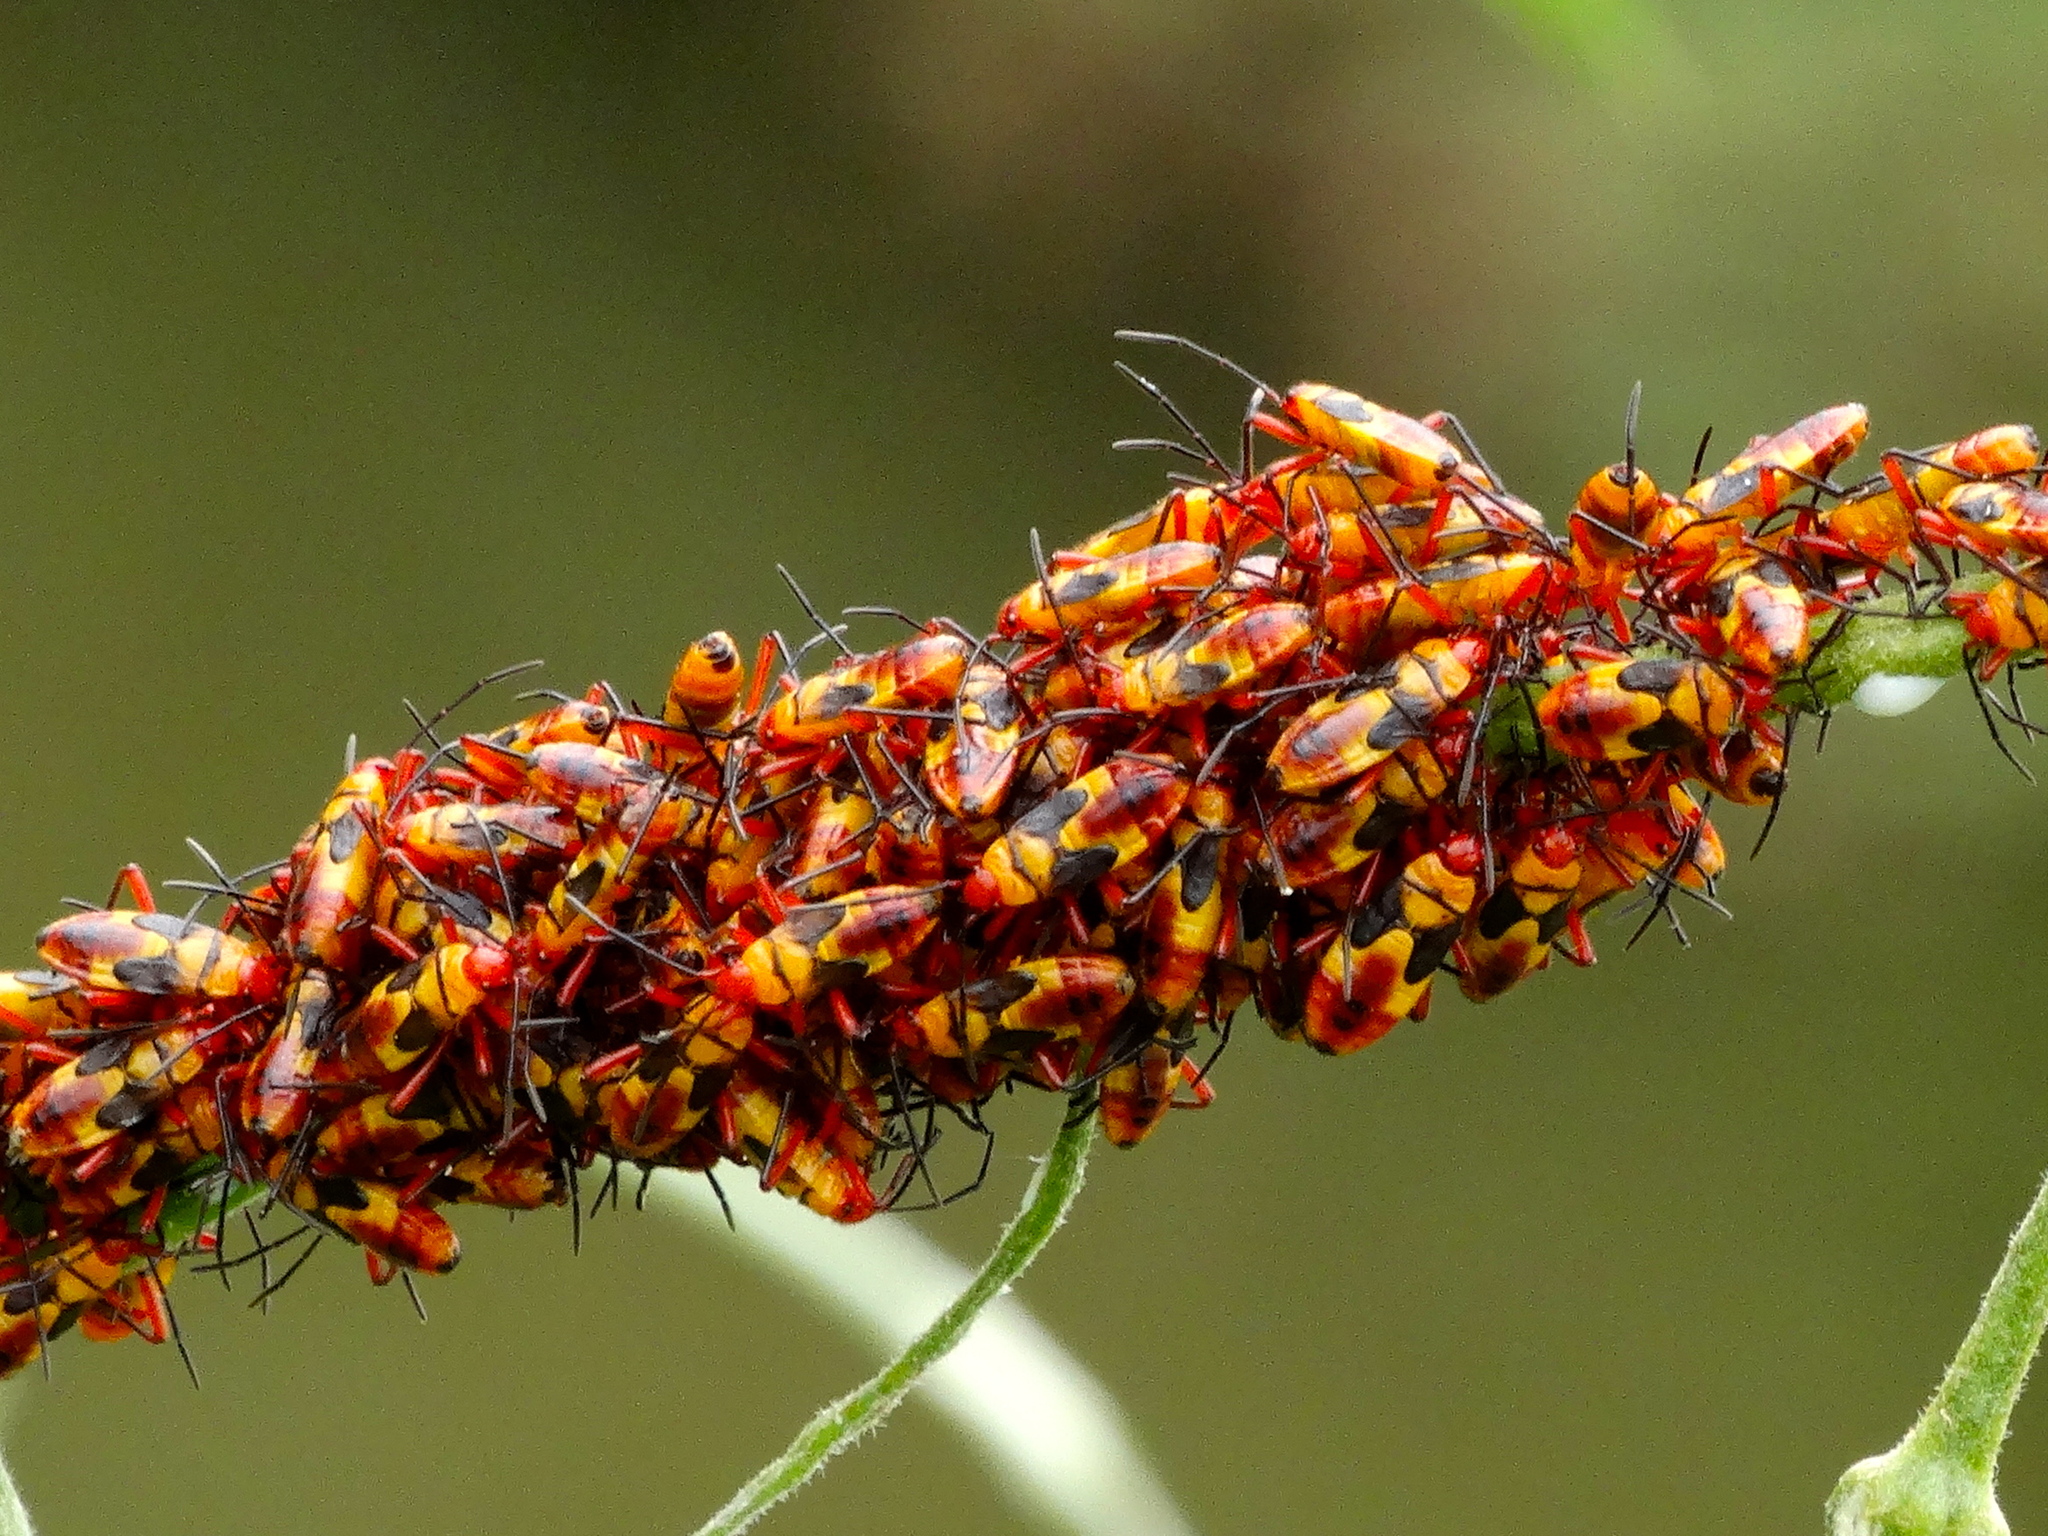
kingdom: Animalia
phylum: Arthropoda
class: Insecta
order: Hemiptera
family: Lygaeidae
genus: Oncopeltus
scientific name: Oncopeltus
